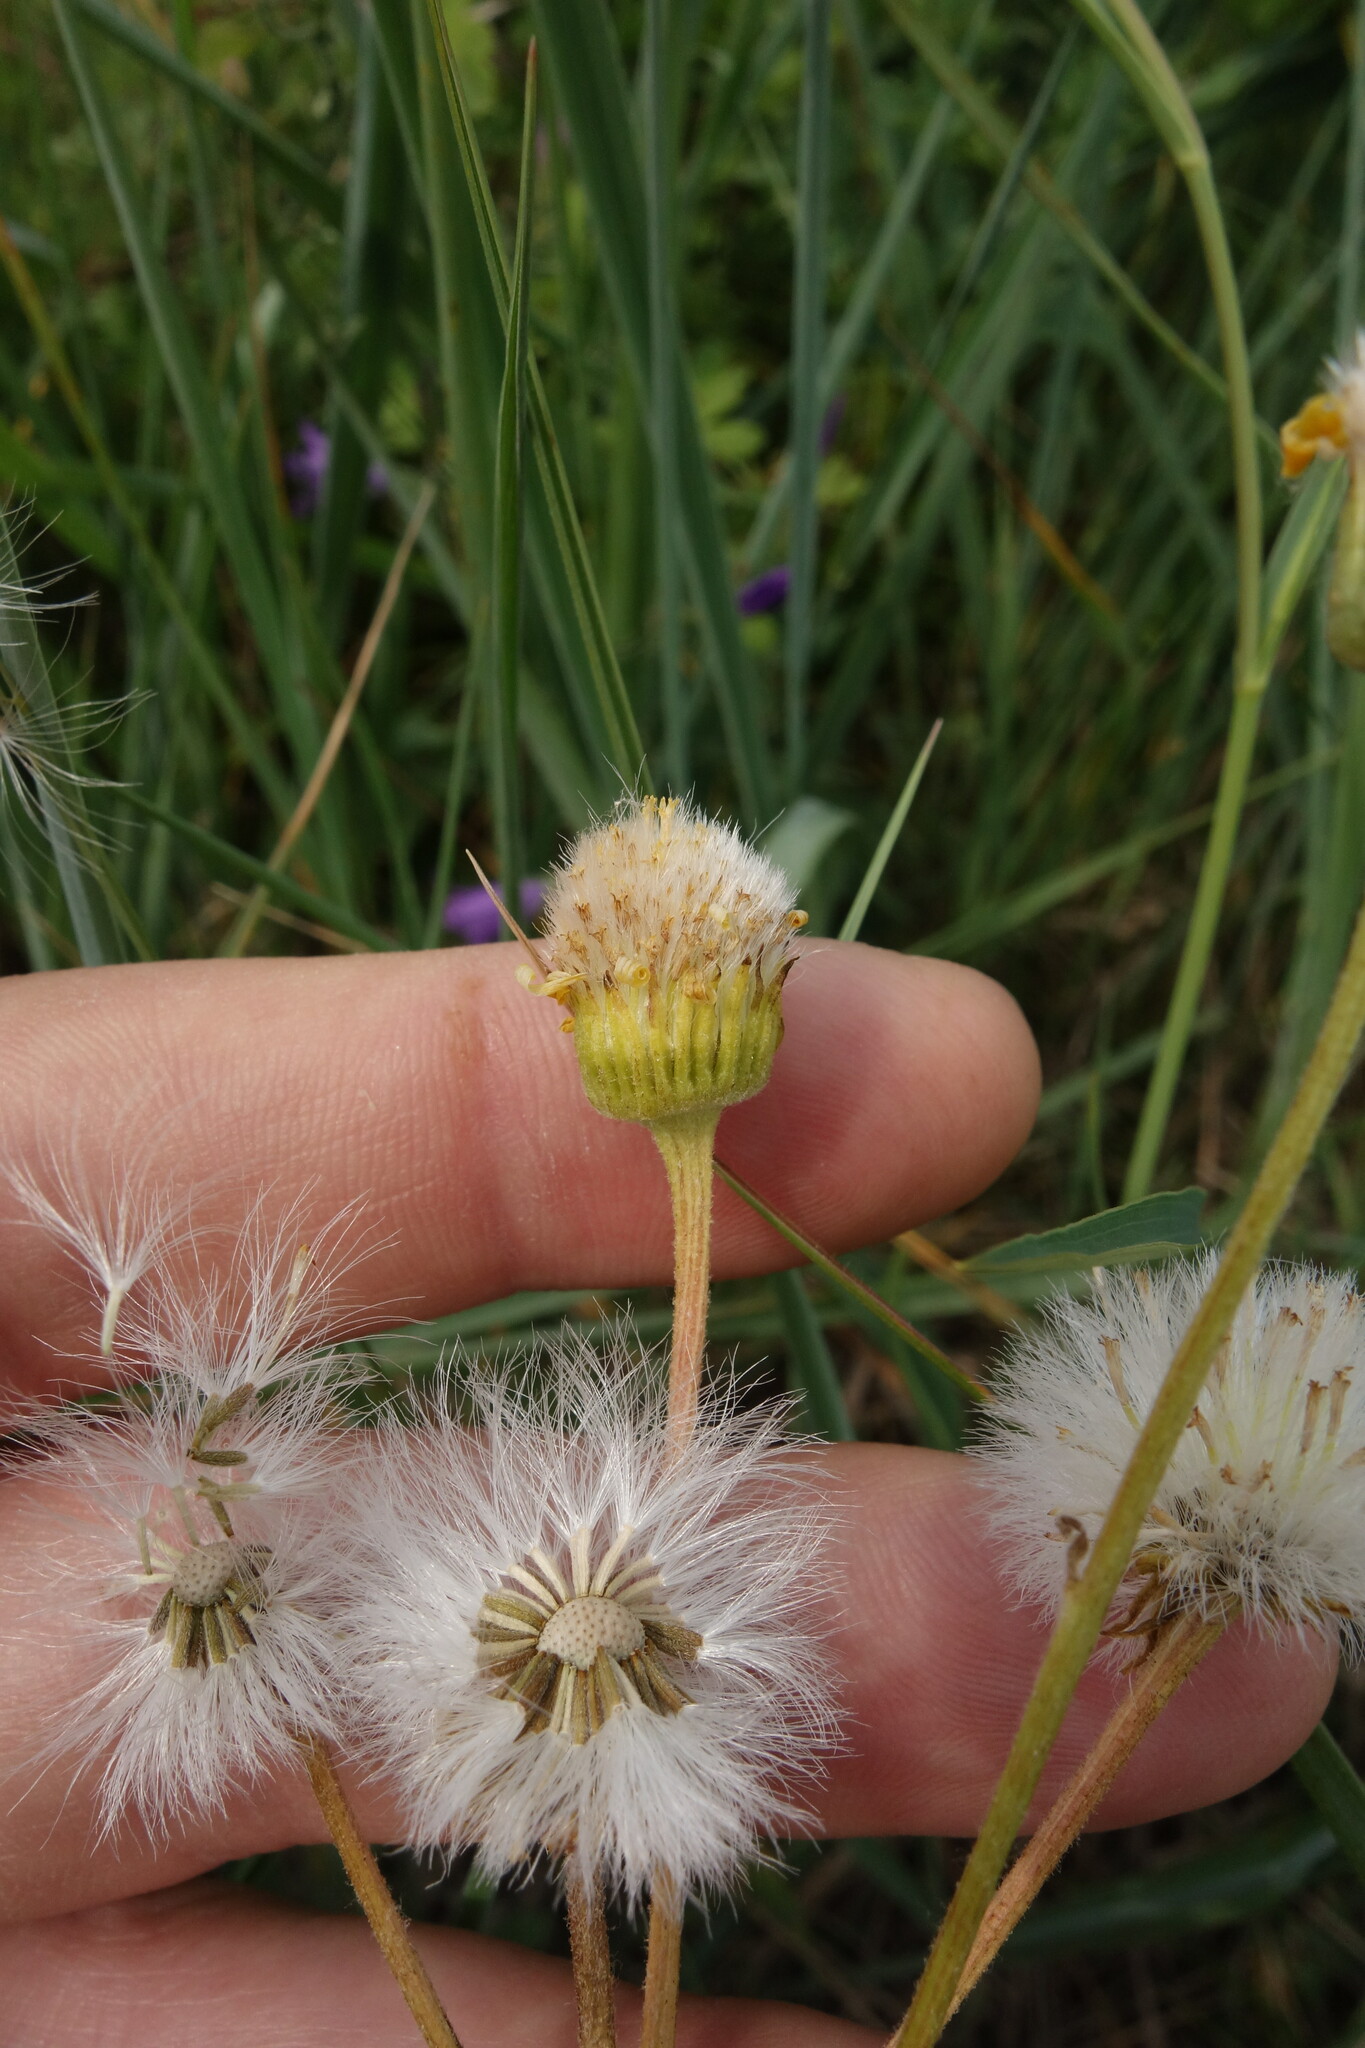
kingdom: Plantae
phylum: Tracheophyta
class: Magnoliopsida
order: Asterales
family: Asteraceae
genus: Tephroseris
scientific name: Tephroseris integrifolia
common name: Field fleawort
